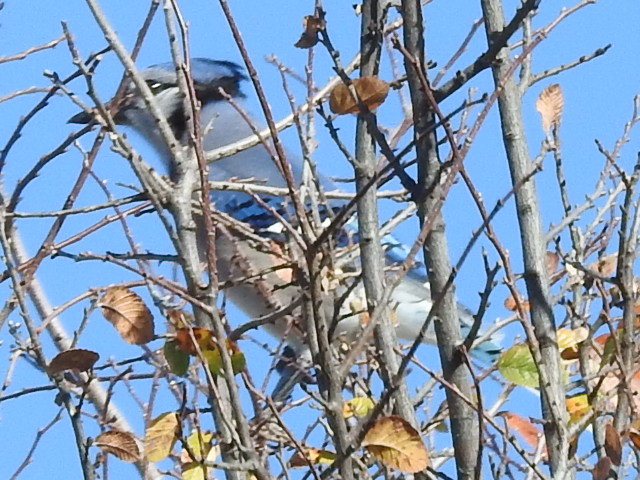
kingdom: Animalia
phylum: Chordata
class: Aves
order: Passeriformes
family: Corvidae
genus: Cyanocitta
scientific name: Cyanocitta cristata
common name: Blue jay
